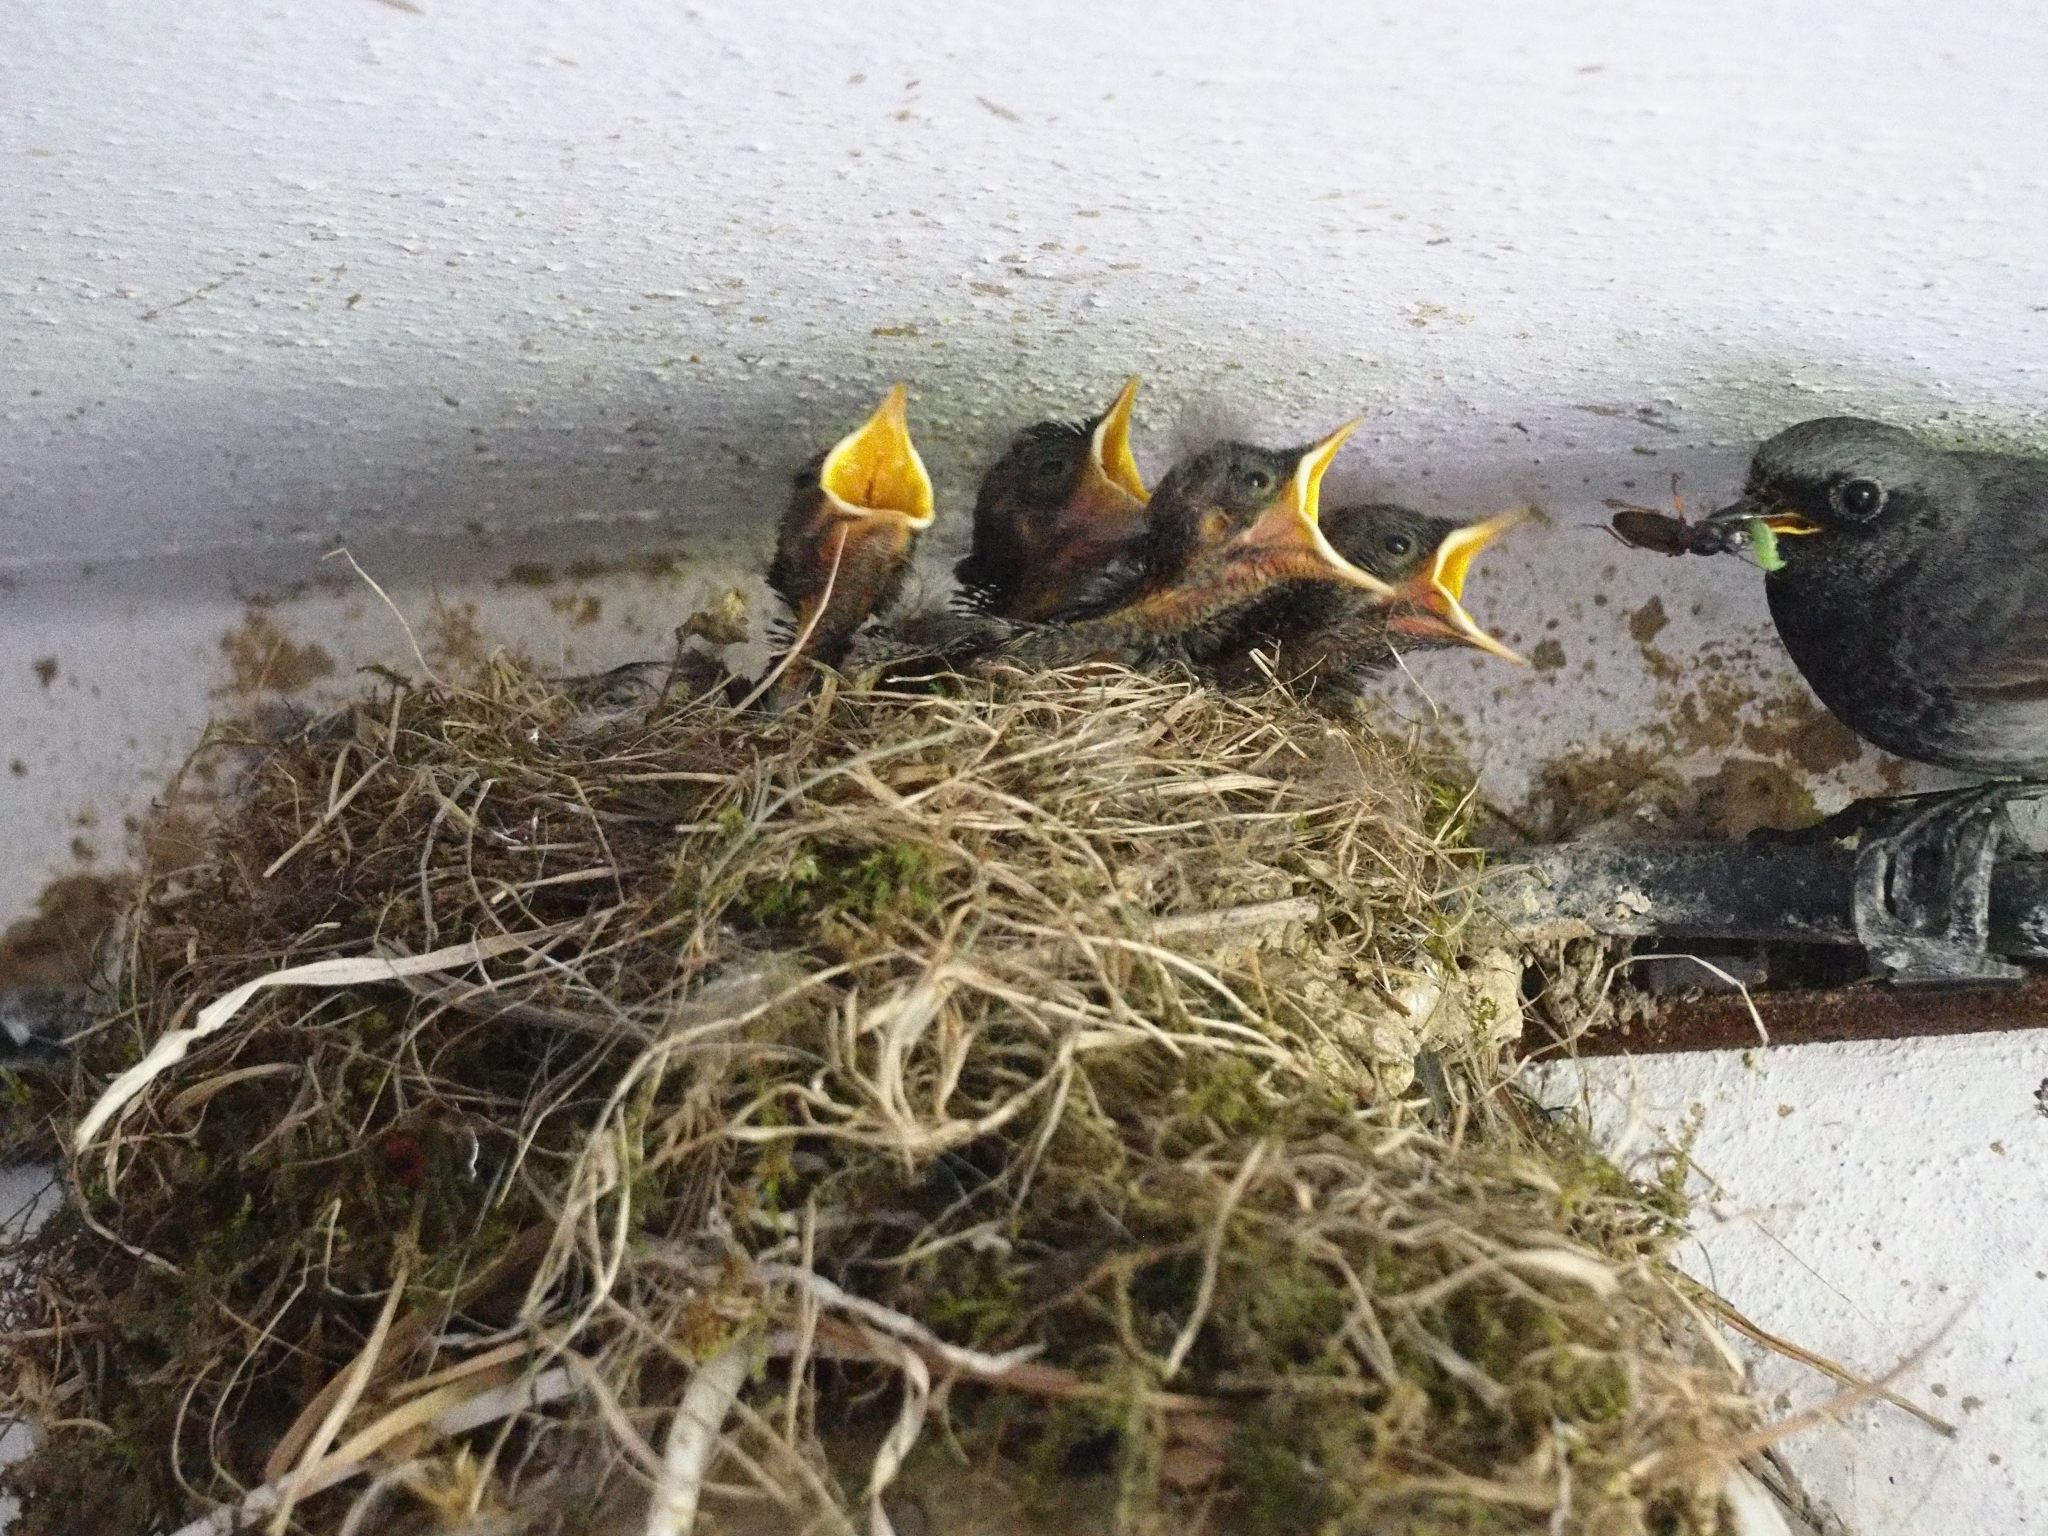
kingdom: Animalia
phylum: Chordata
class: Aves
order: Passeriformes
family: Muscicapidae
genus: Phoenicurus
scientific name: Phoenicurus ochruros
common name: Black redstart
